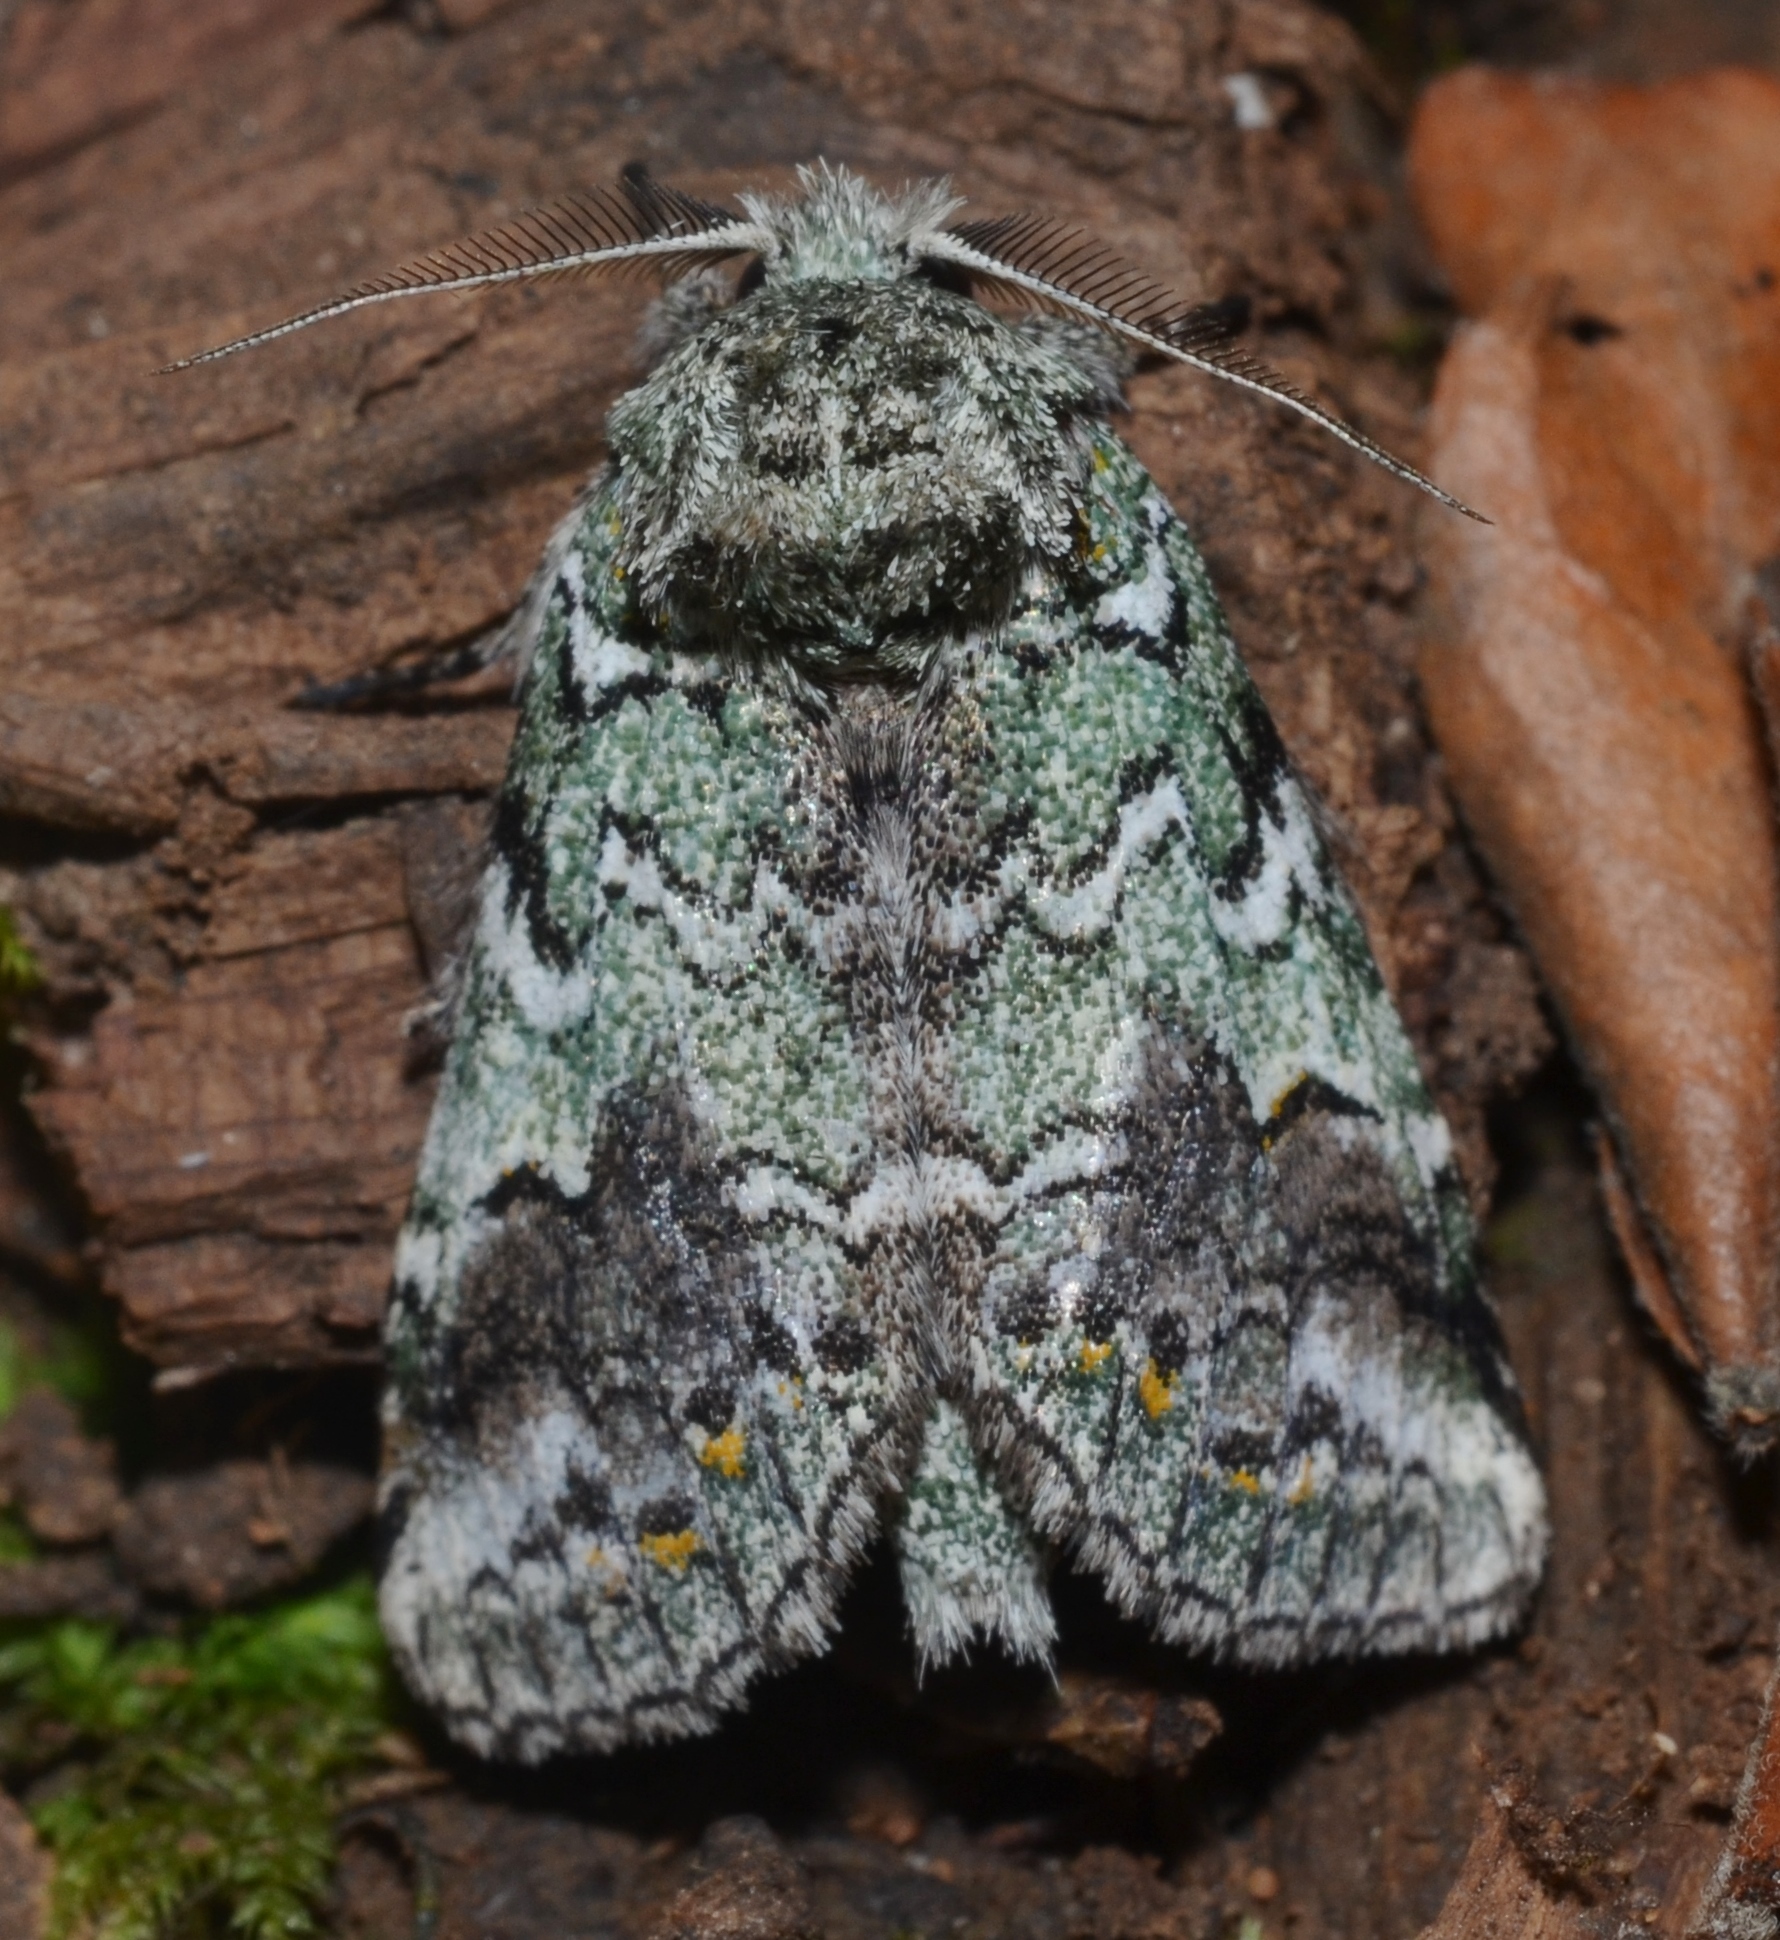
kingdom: Animalia
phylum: Arthropoda
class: Insecta
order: Lepidoptera
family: Notodontidae
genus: Litodonta
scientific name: Litodonta hydromeli
